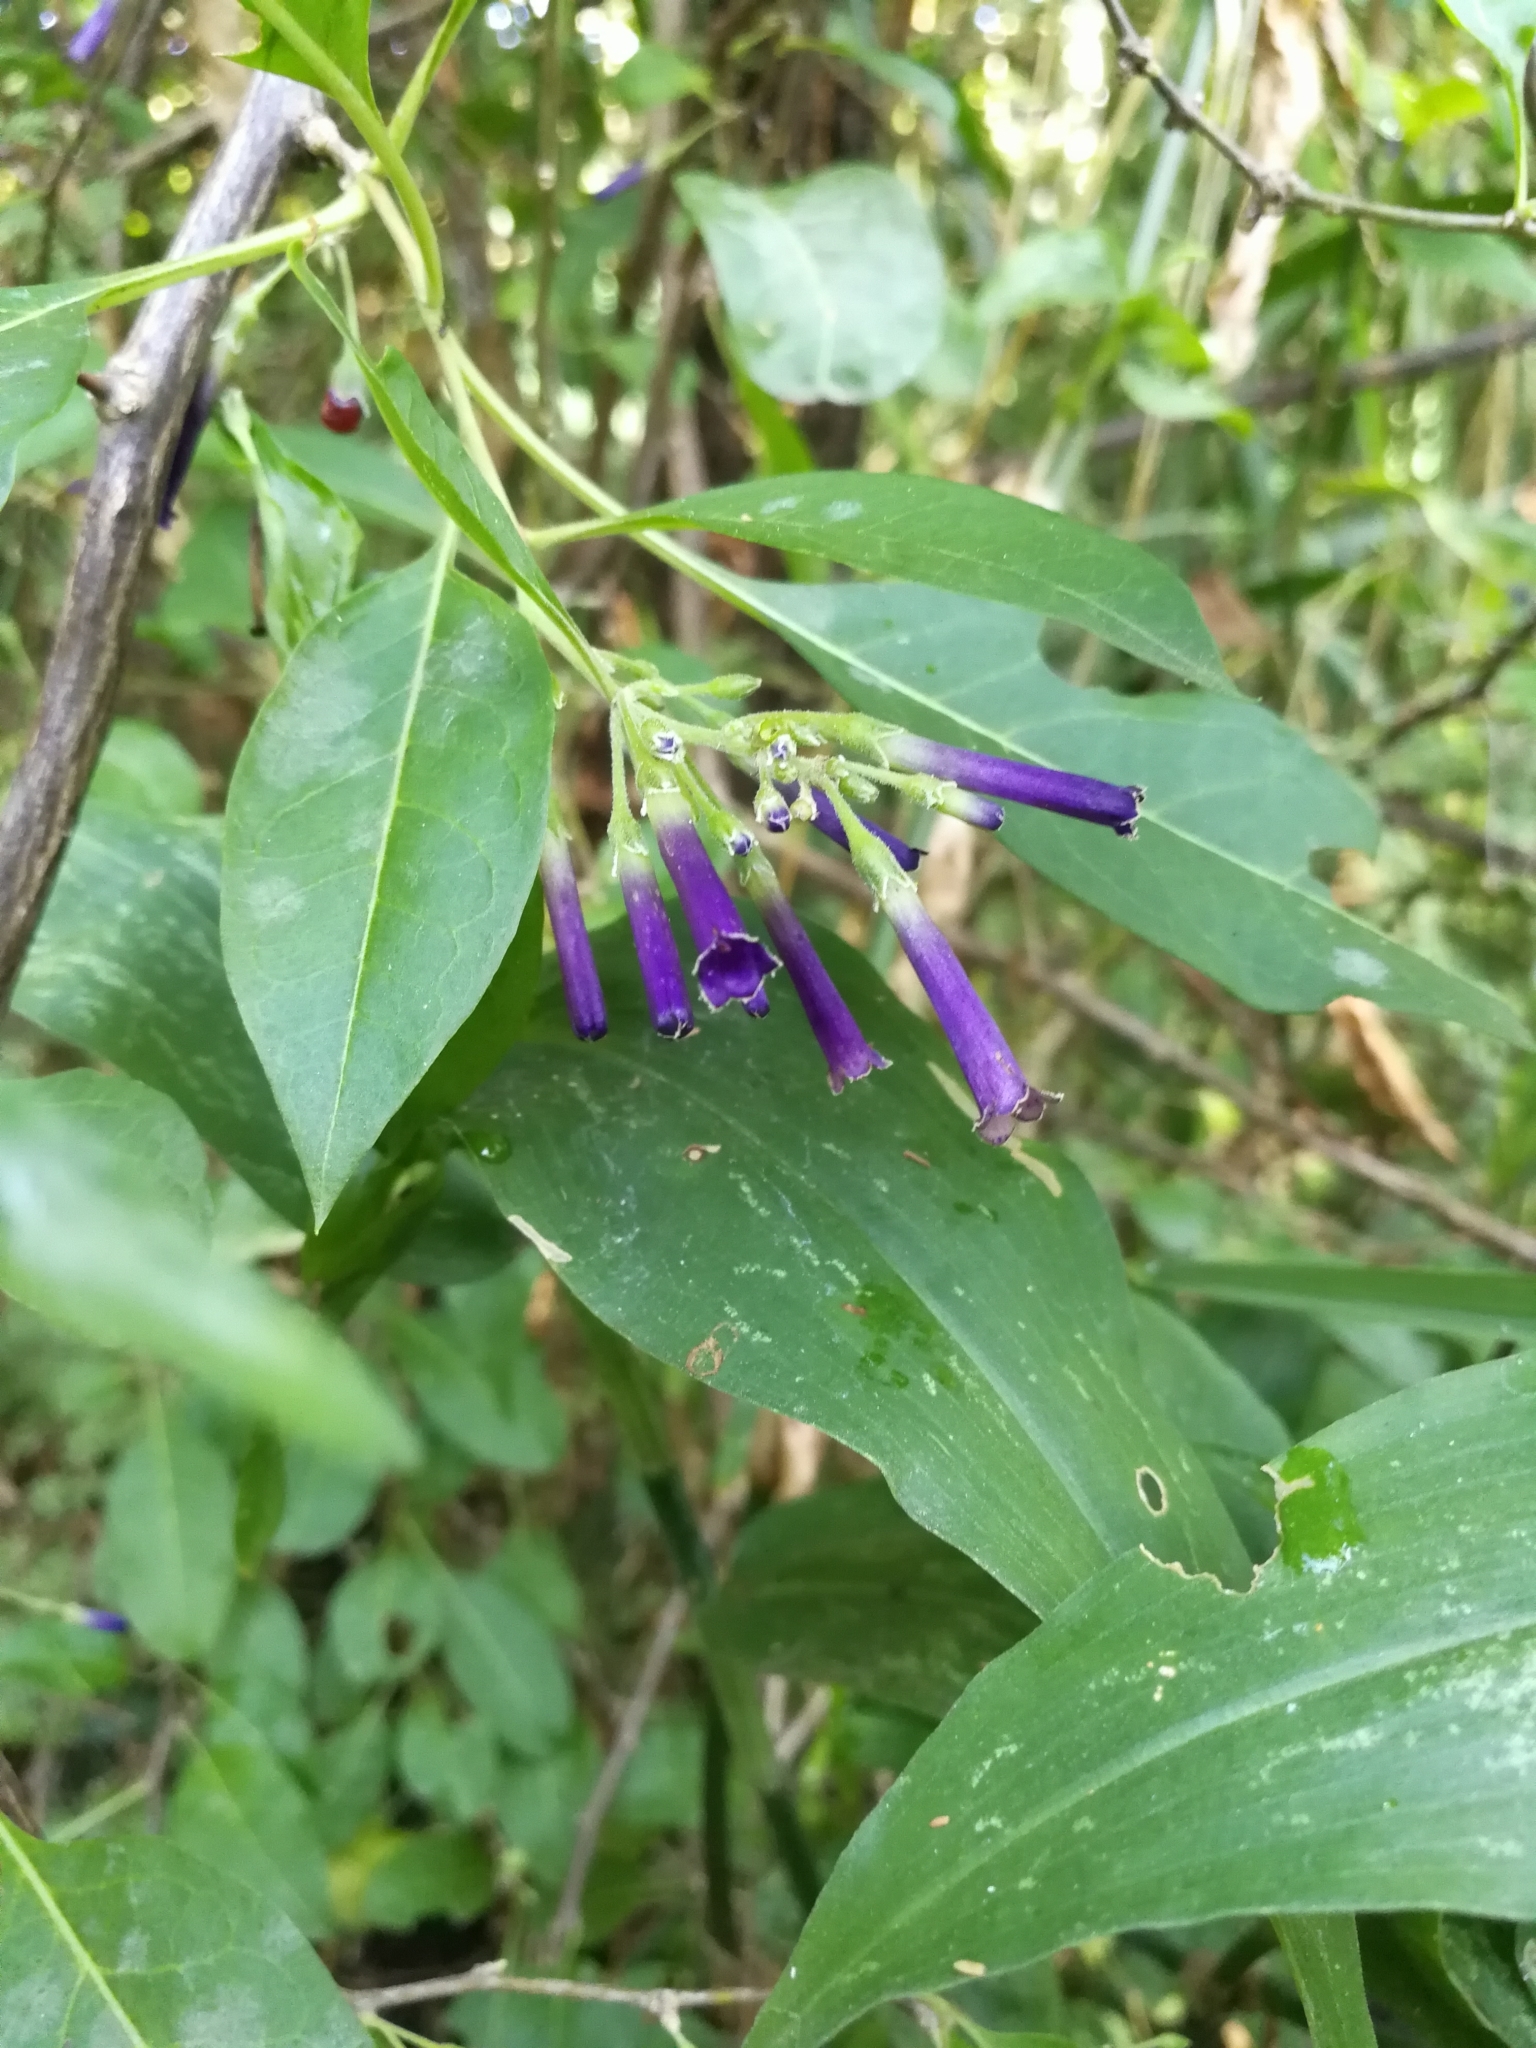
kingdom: Plantae
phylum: Tracheophyta
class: Magnoliopsida
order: Solanales
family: Solanaceae
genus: Lycium
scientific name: Lycium cestroides
